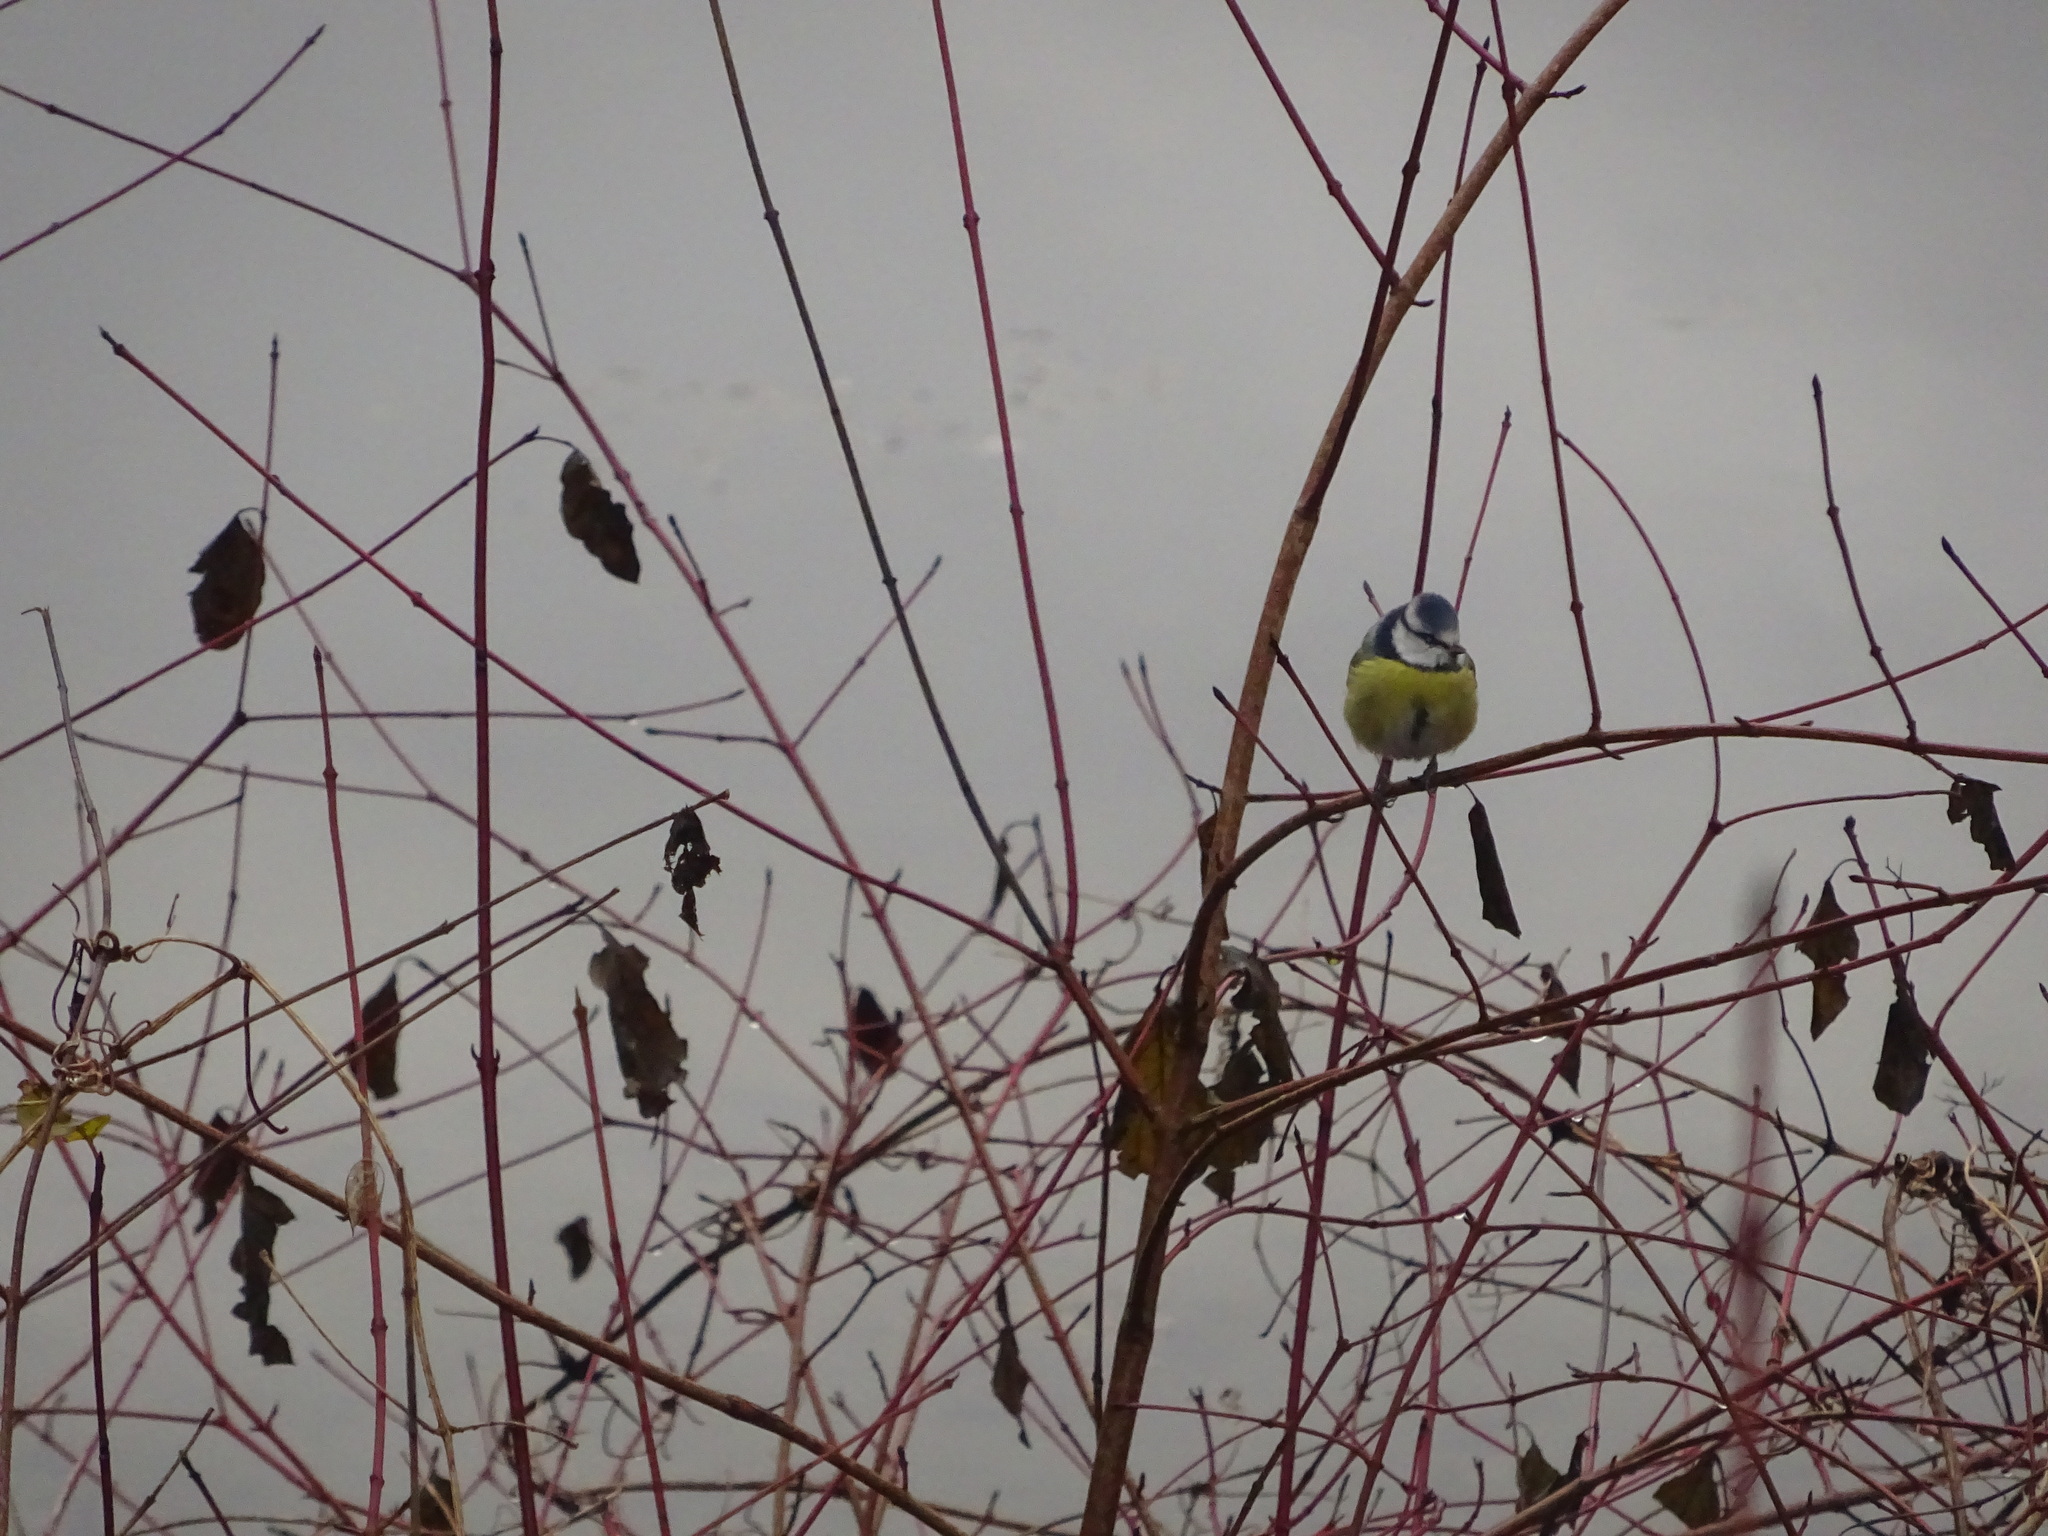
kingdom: Animalia
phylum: Chordata
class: Aves
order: Passeriformes
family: Paridae
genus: Cyanistes
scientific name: Cyanistes caeruleus
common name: Eurasian blue tit
